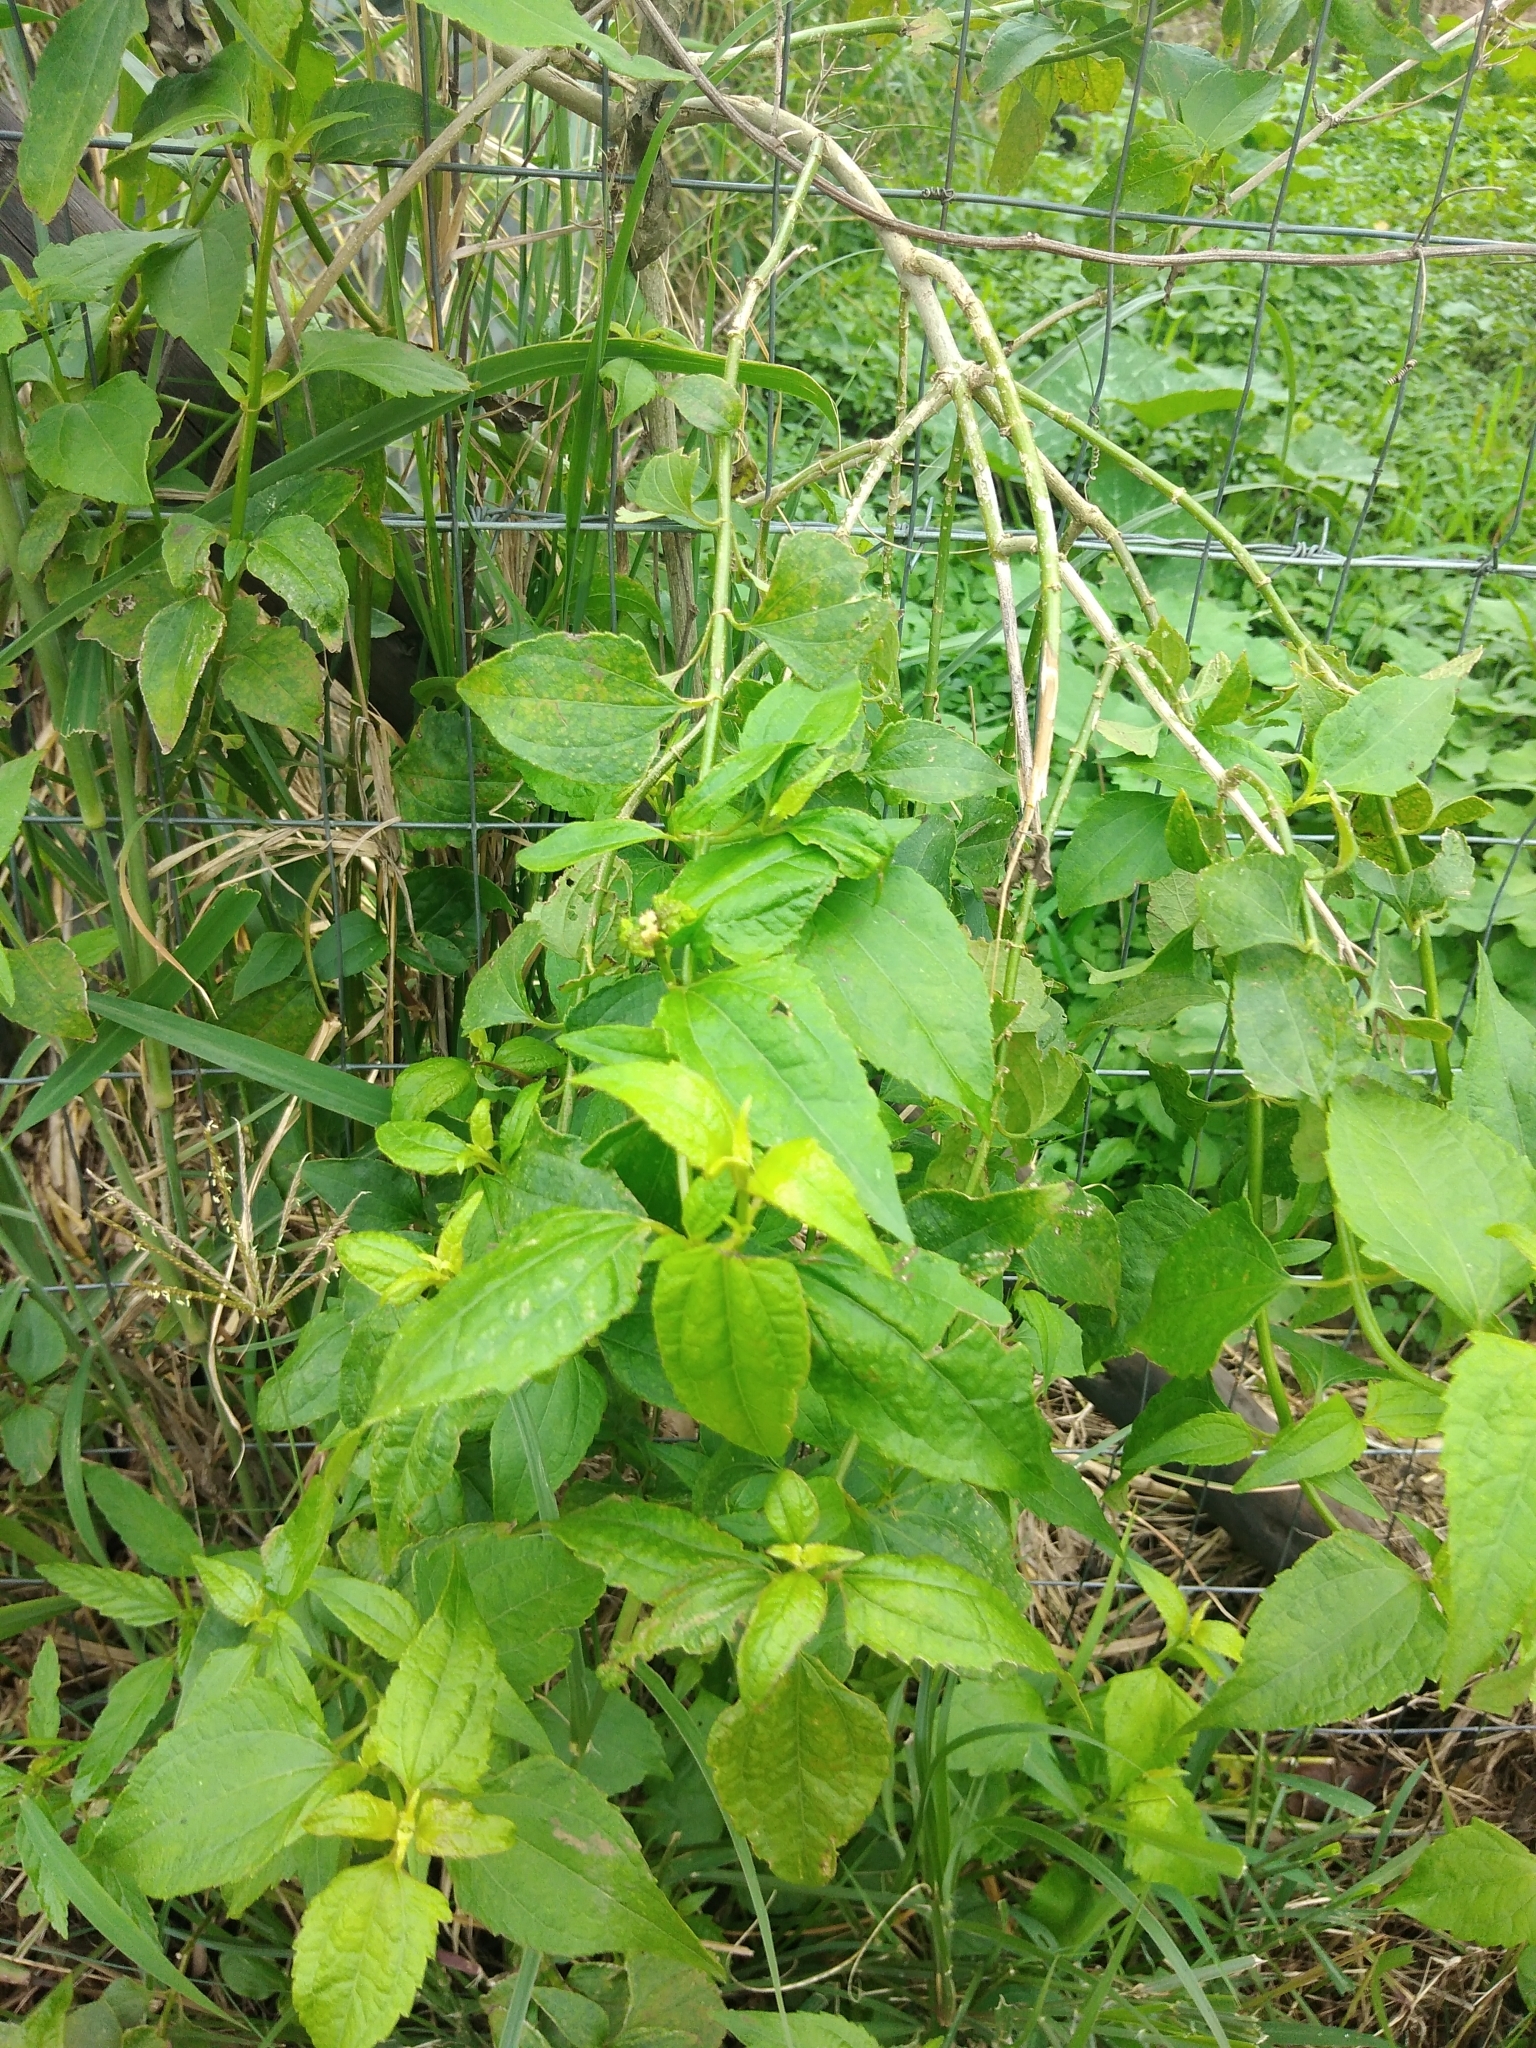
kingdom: Plantae
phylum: Tracheophyta
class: Magnoliopsida
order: Asterales
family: Asteraceae
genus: Chromolaena
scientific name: Chromolaena odorata
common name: Siamweed
